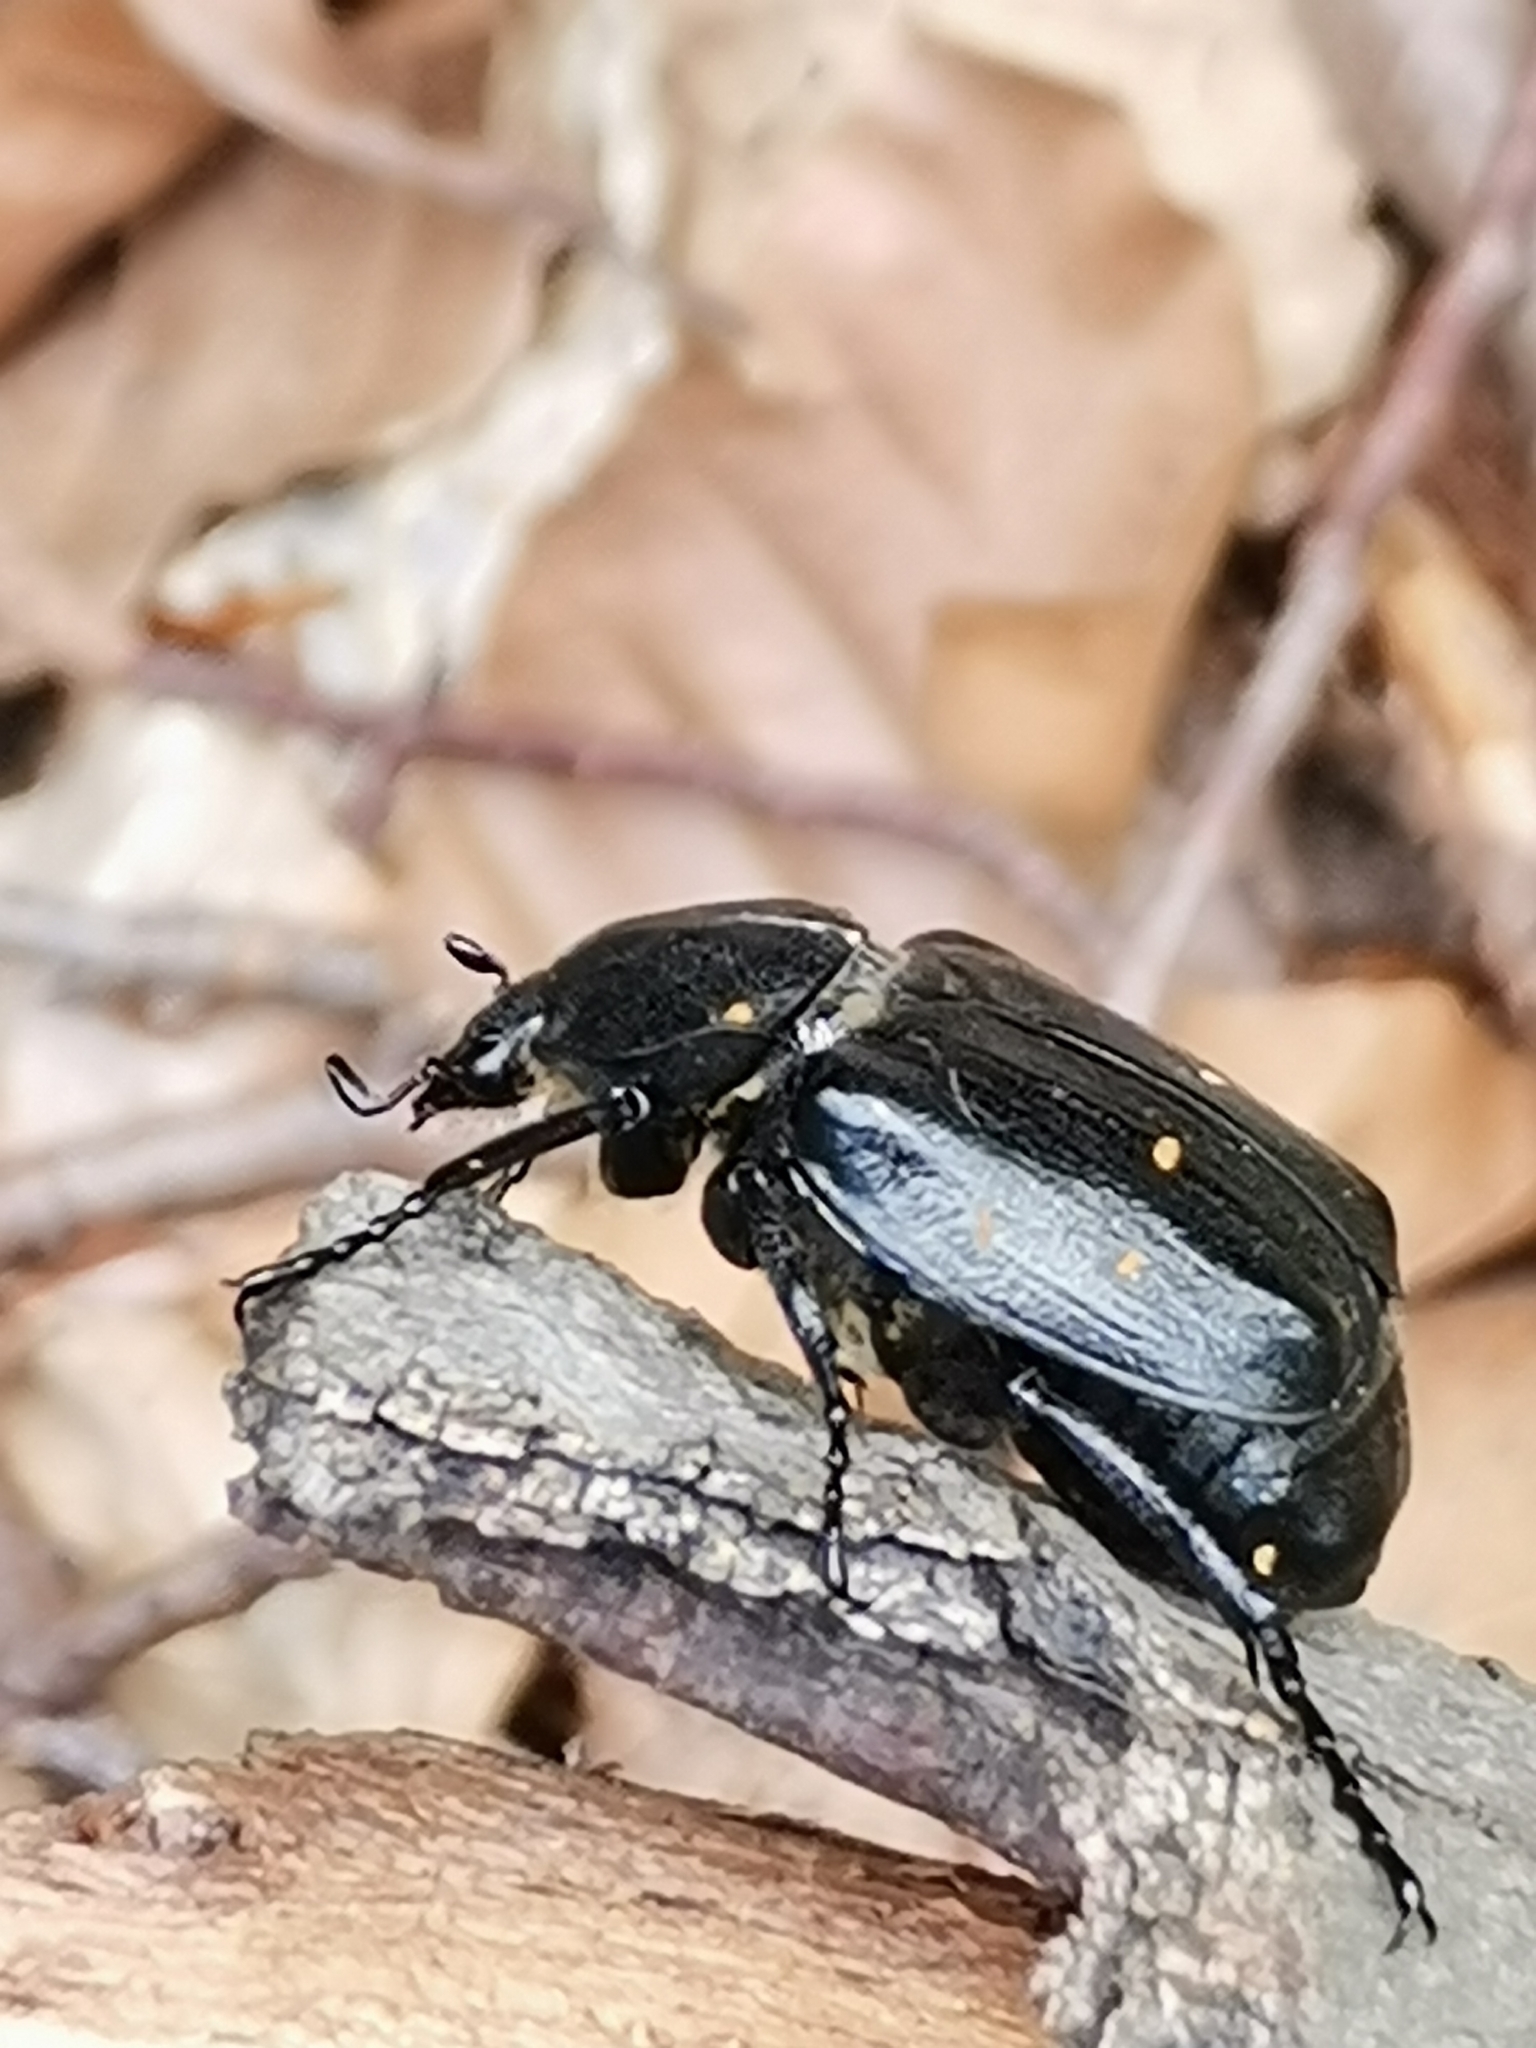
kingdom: Animalia
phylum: Arthropoda
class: Insecta
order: Coleoptera
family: Scarabaeidae
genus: Gnorimus
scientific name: Gnorimus variabilis
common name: Variable chafer
